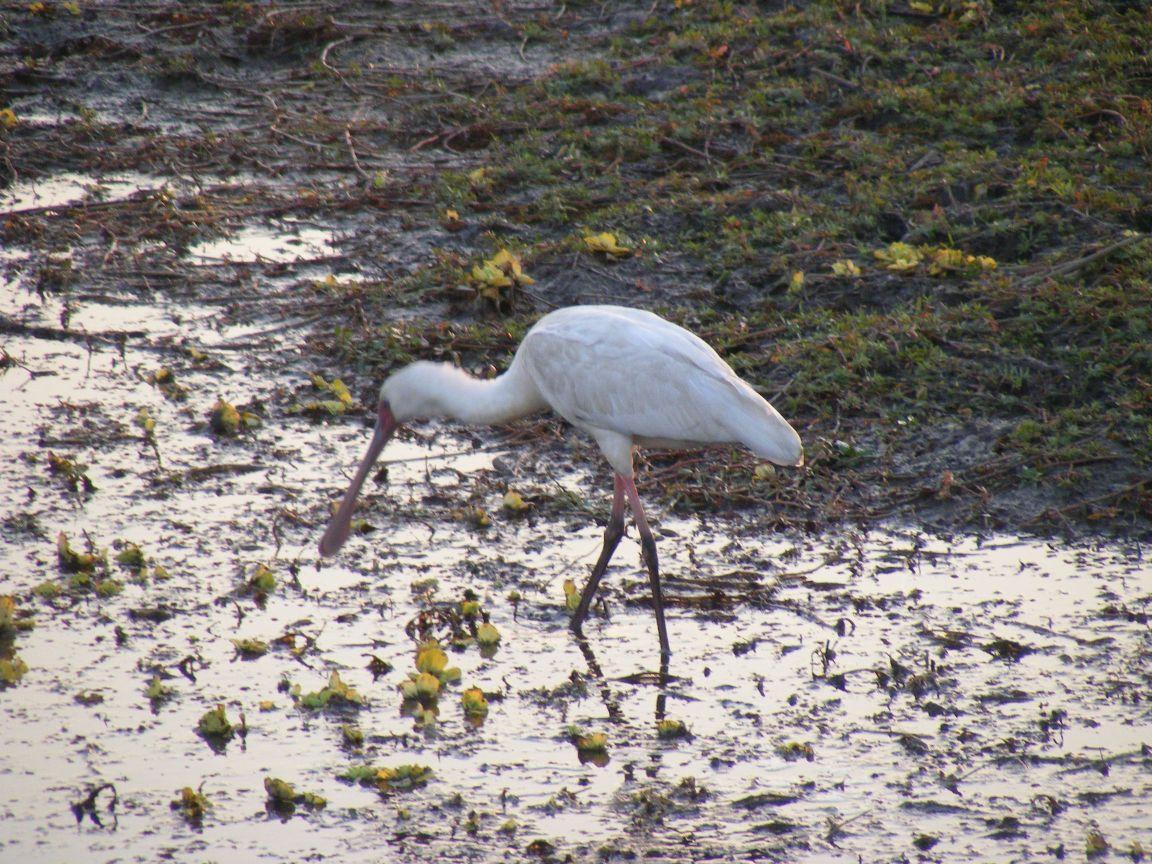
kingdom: Animalia
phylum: Chordata
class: Aves
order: Pelecaniformes
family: Threskiornithidae
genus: Platalea
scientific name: Platalea alba
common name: African spoonbill
